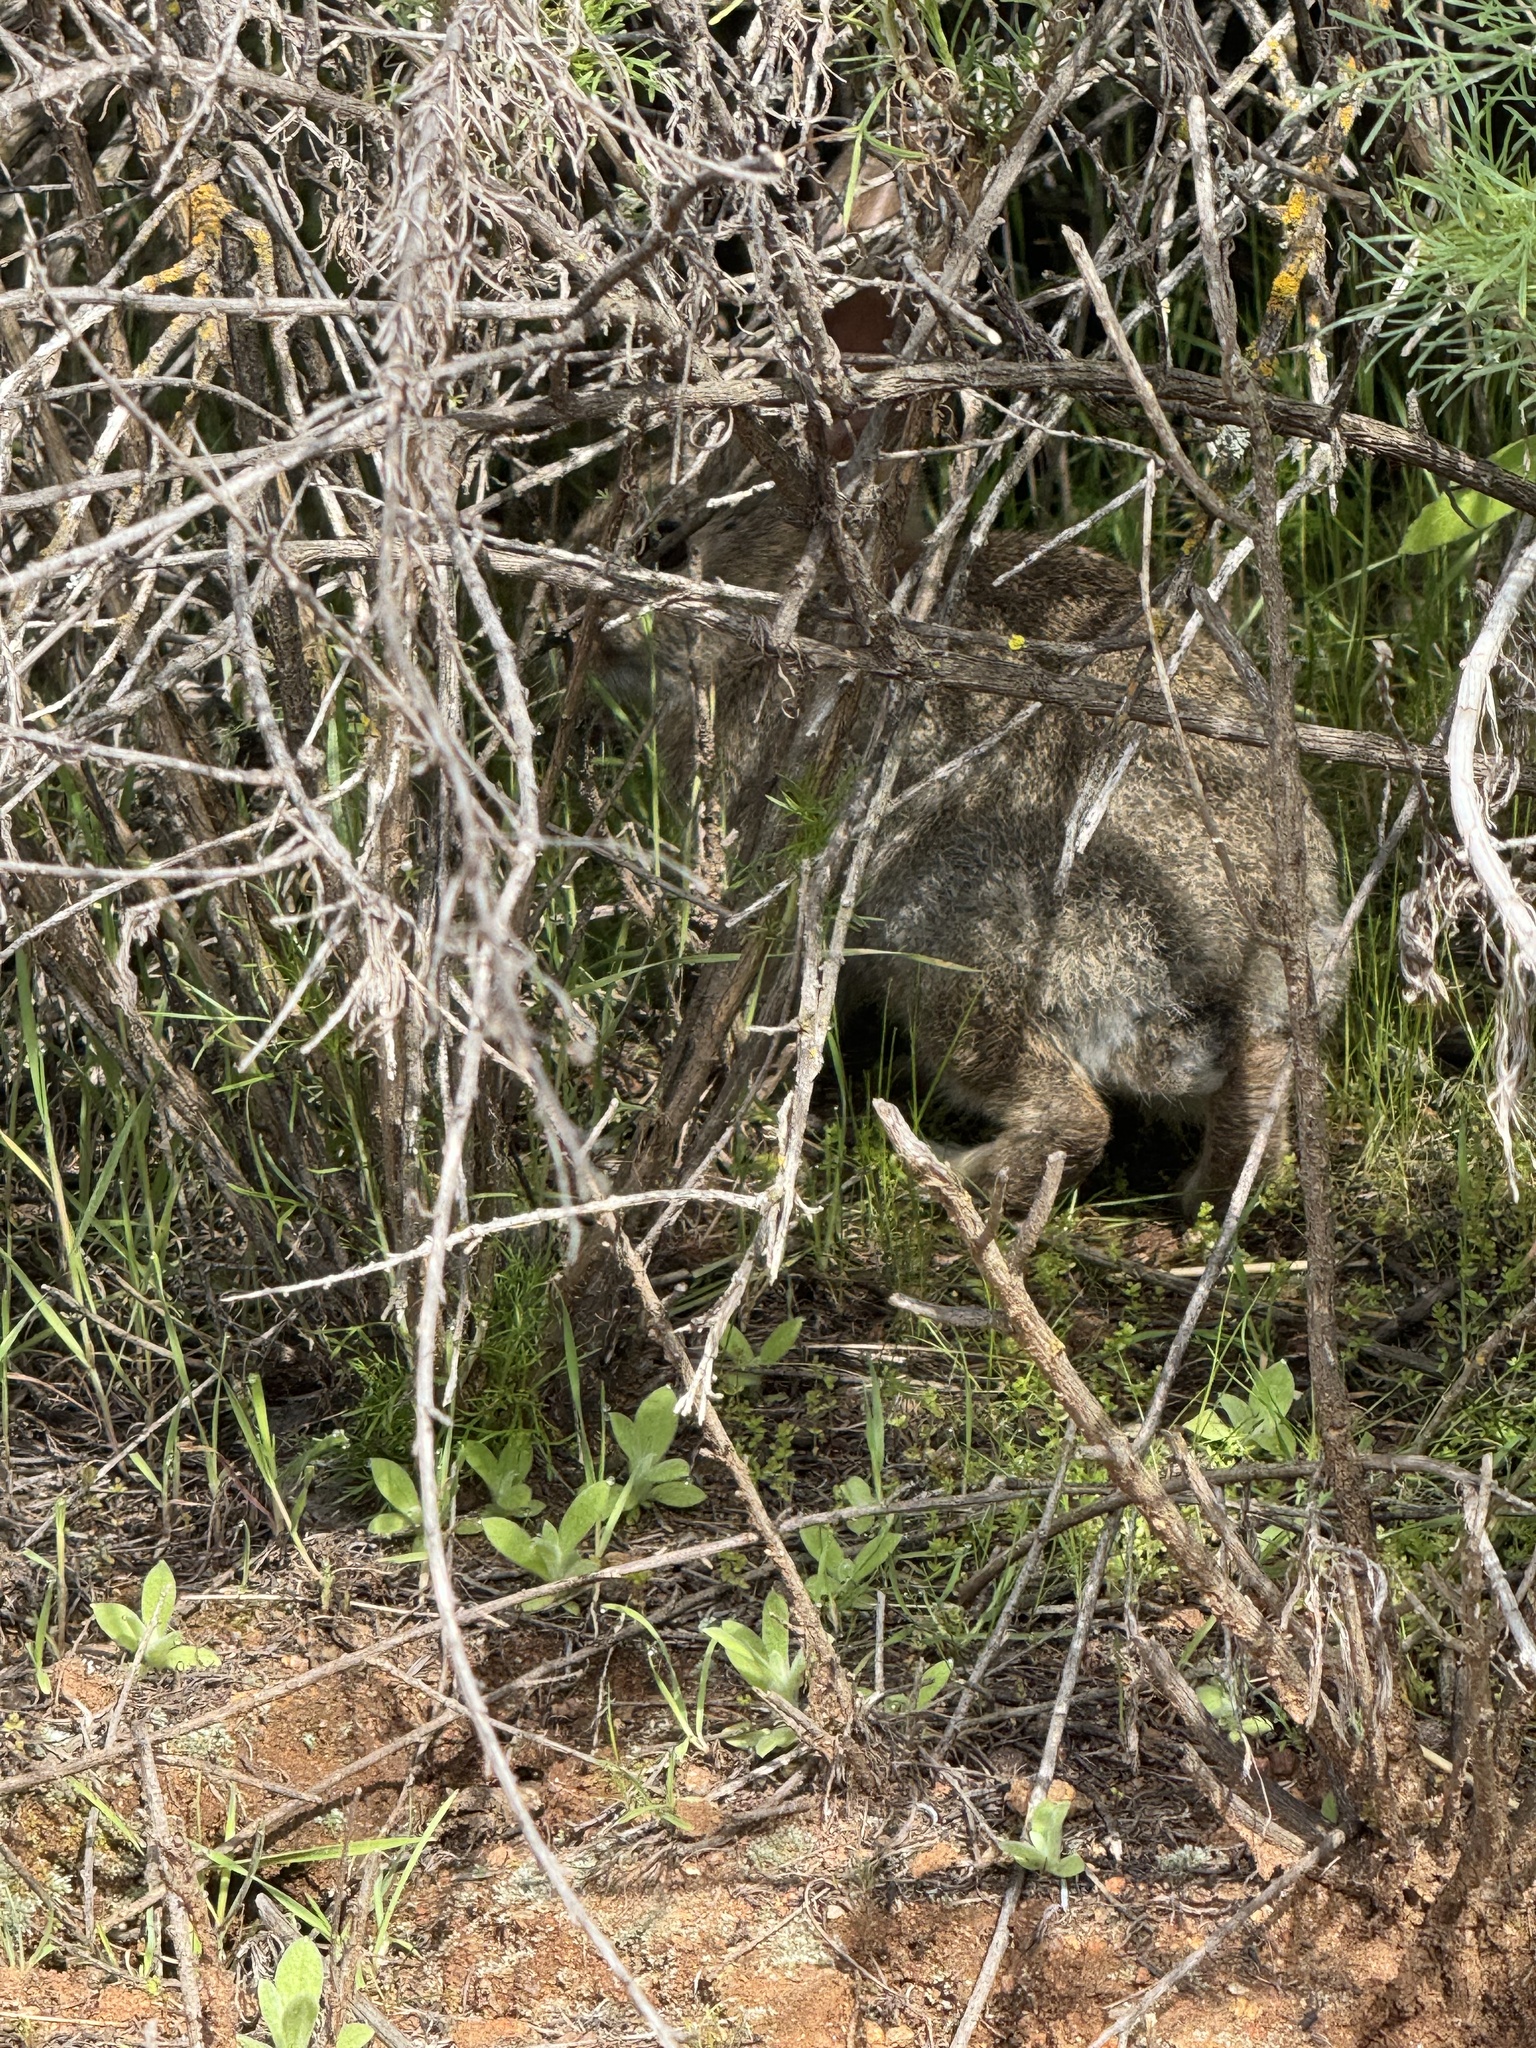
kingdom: Animalia
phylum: Chordata
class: Mammalia
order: Lagomorpha
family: Leporidae
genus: Sylvilagus
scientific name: Sylvilagus bachmani
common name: Brush rabbit
